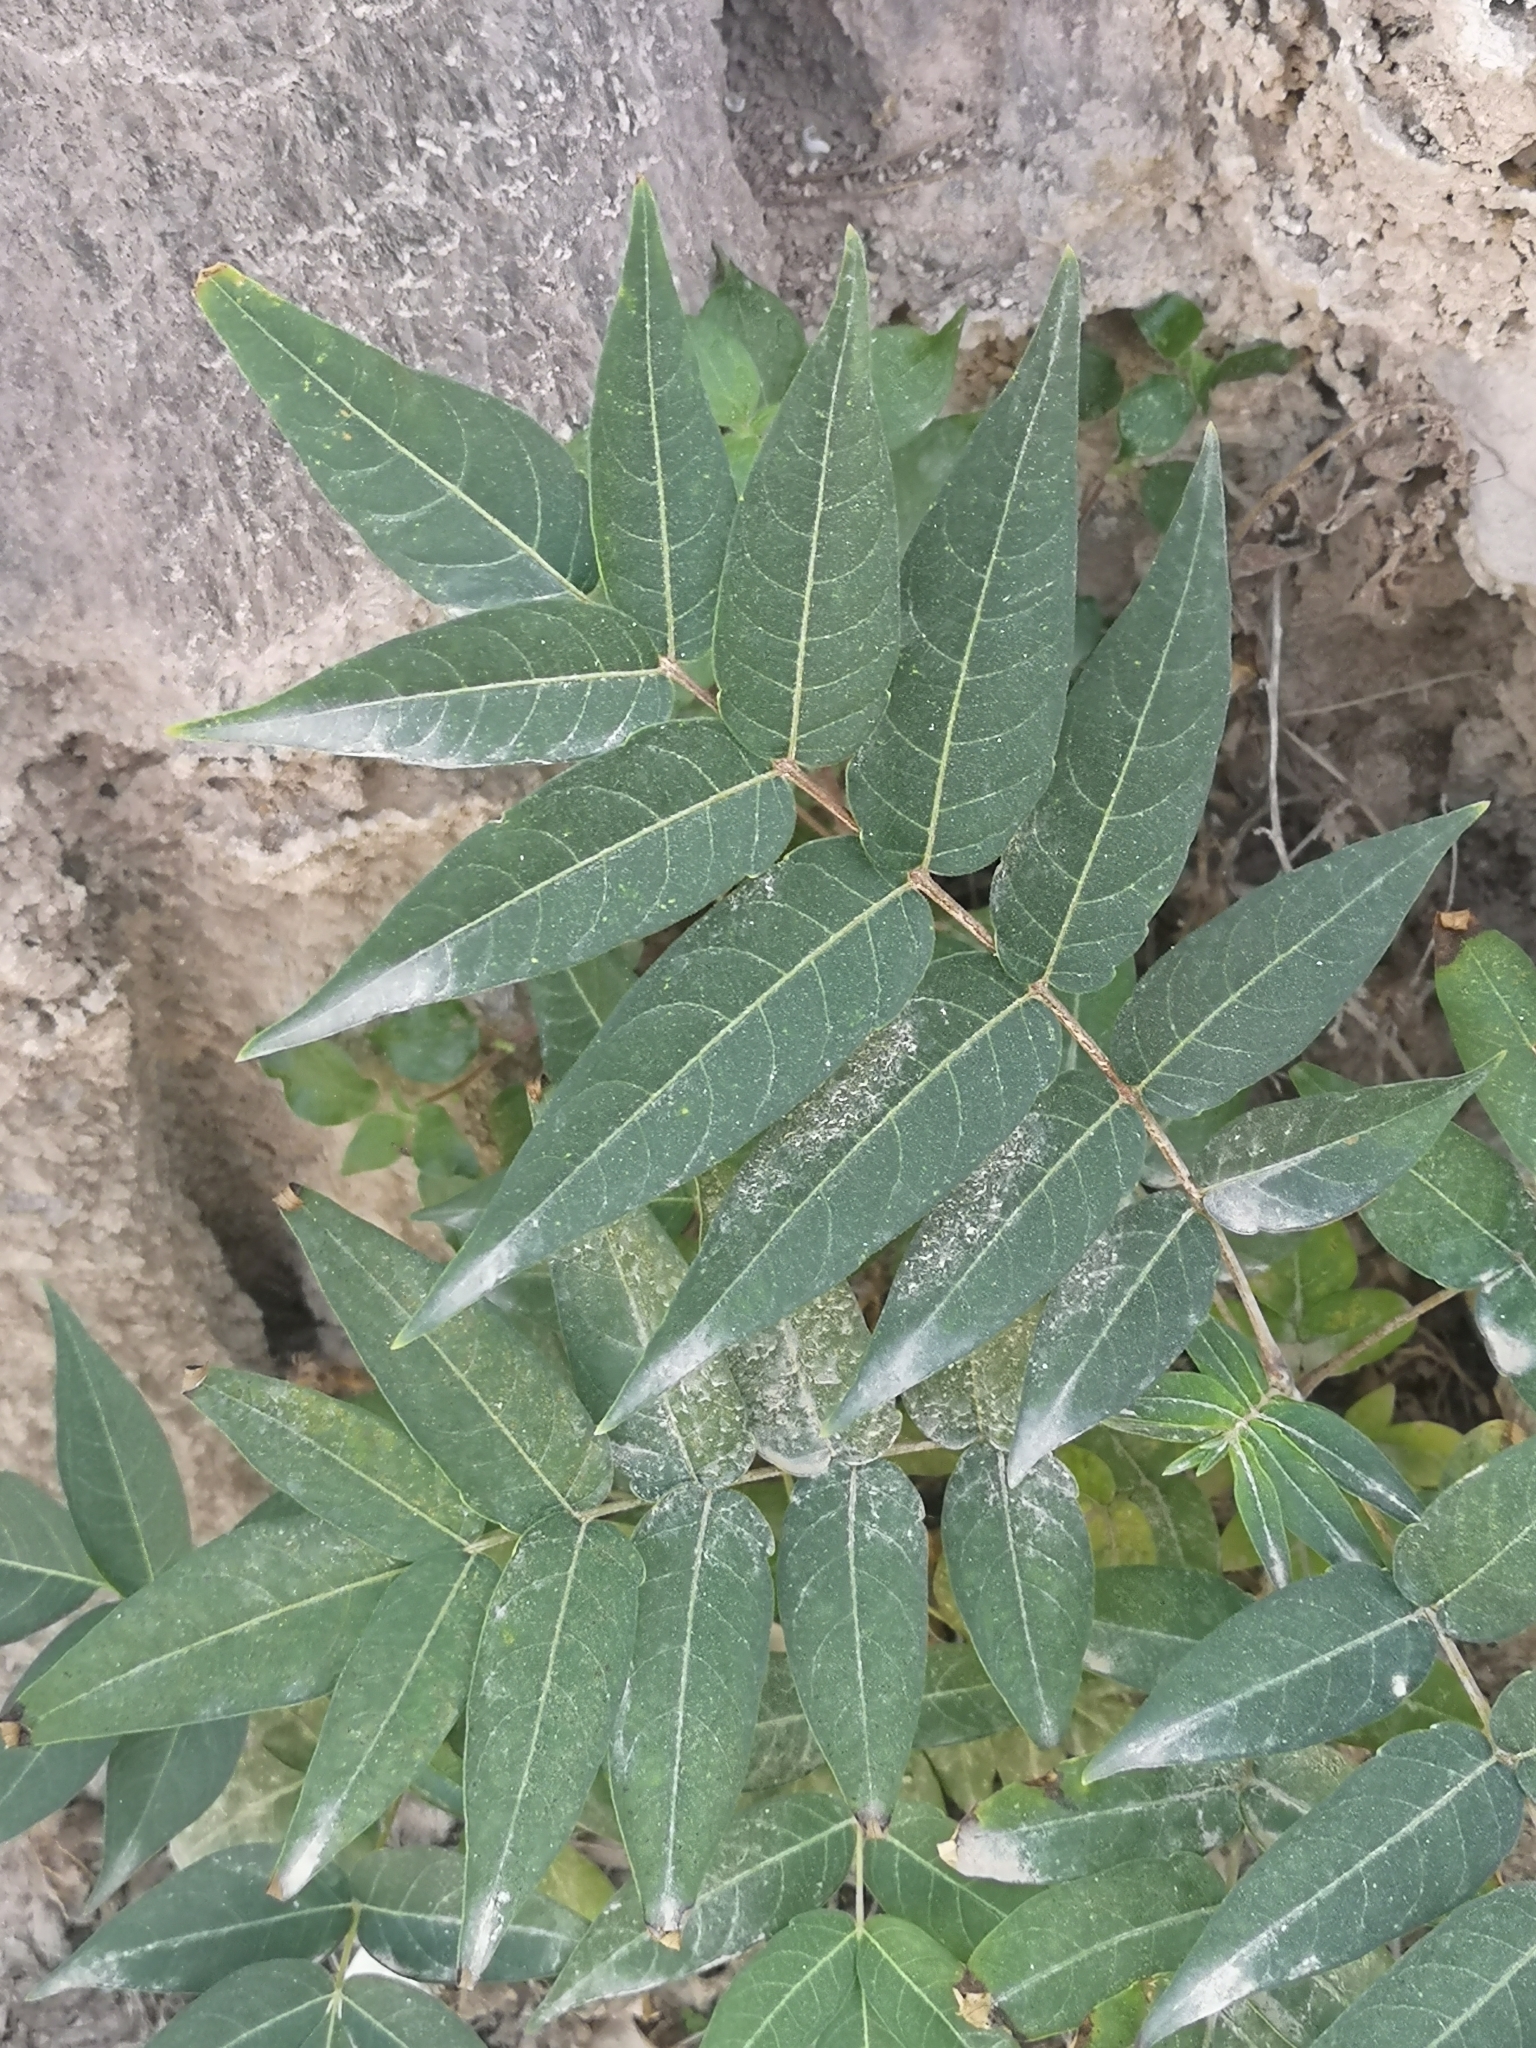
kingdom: Plantae
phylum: Tracheophyta
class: Magnoliopsida
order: Sapindales
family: Simaroubaceae
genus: Ailanthus
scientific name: Ailanthus altissima
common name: Tree-of-heaven
